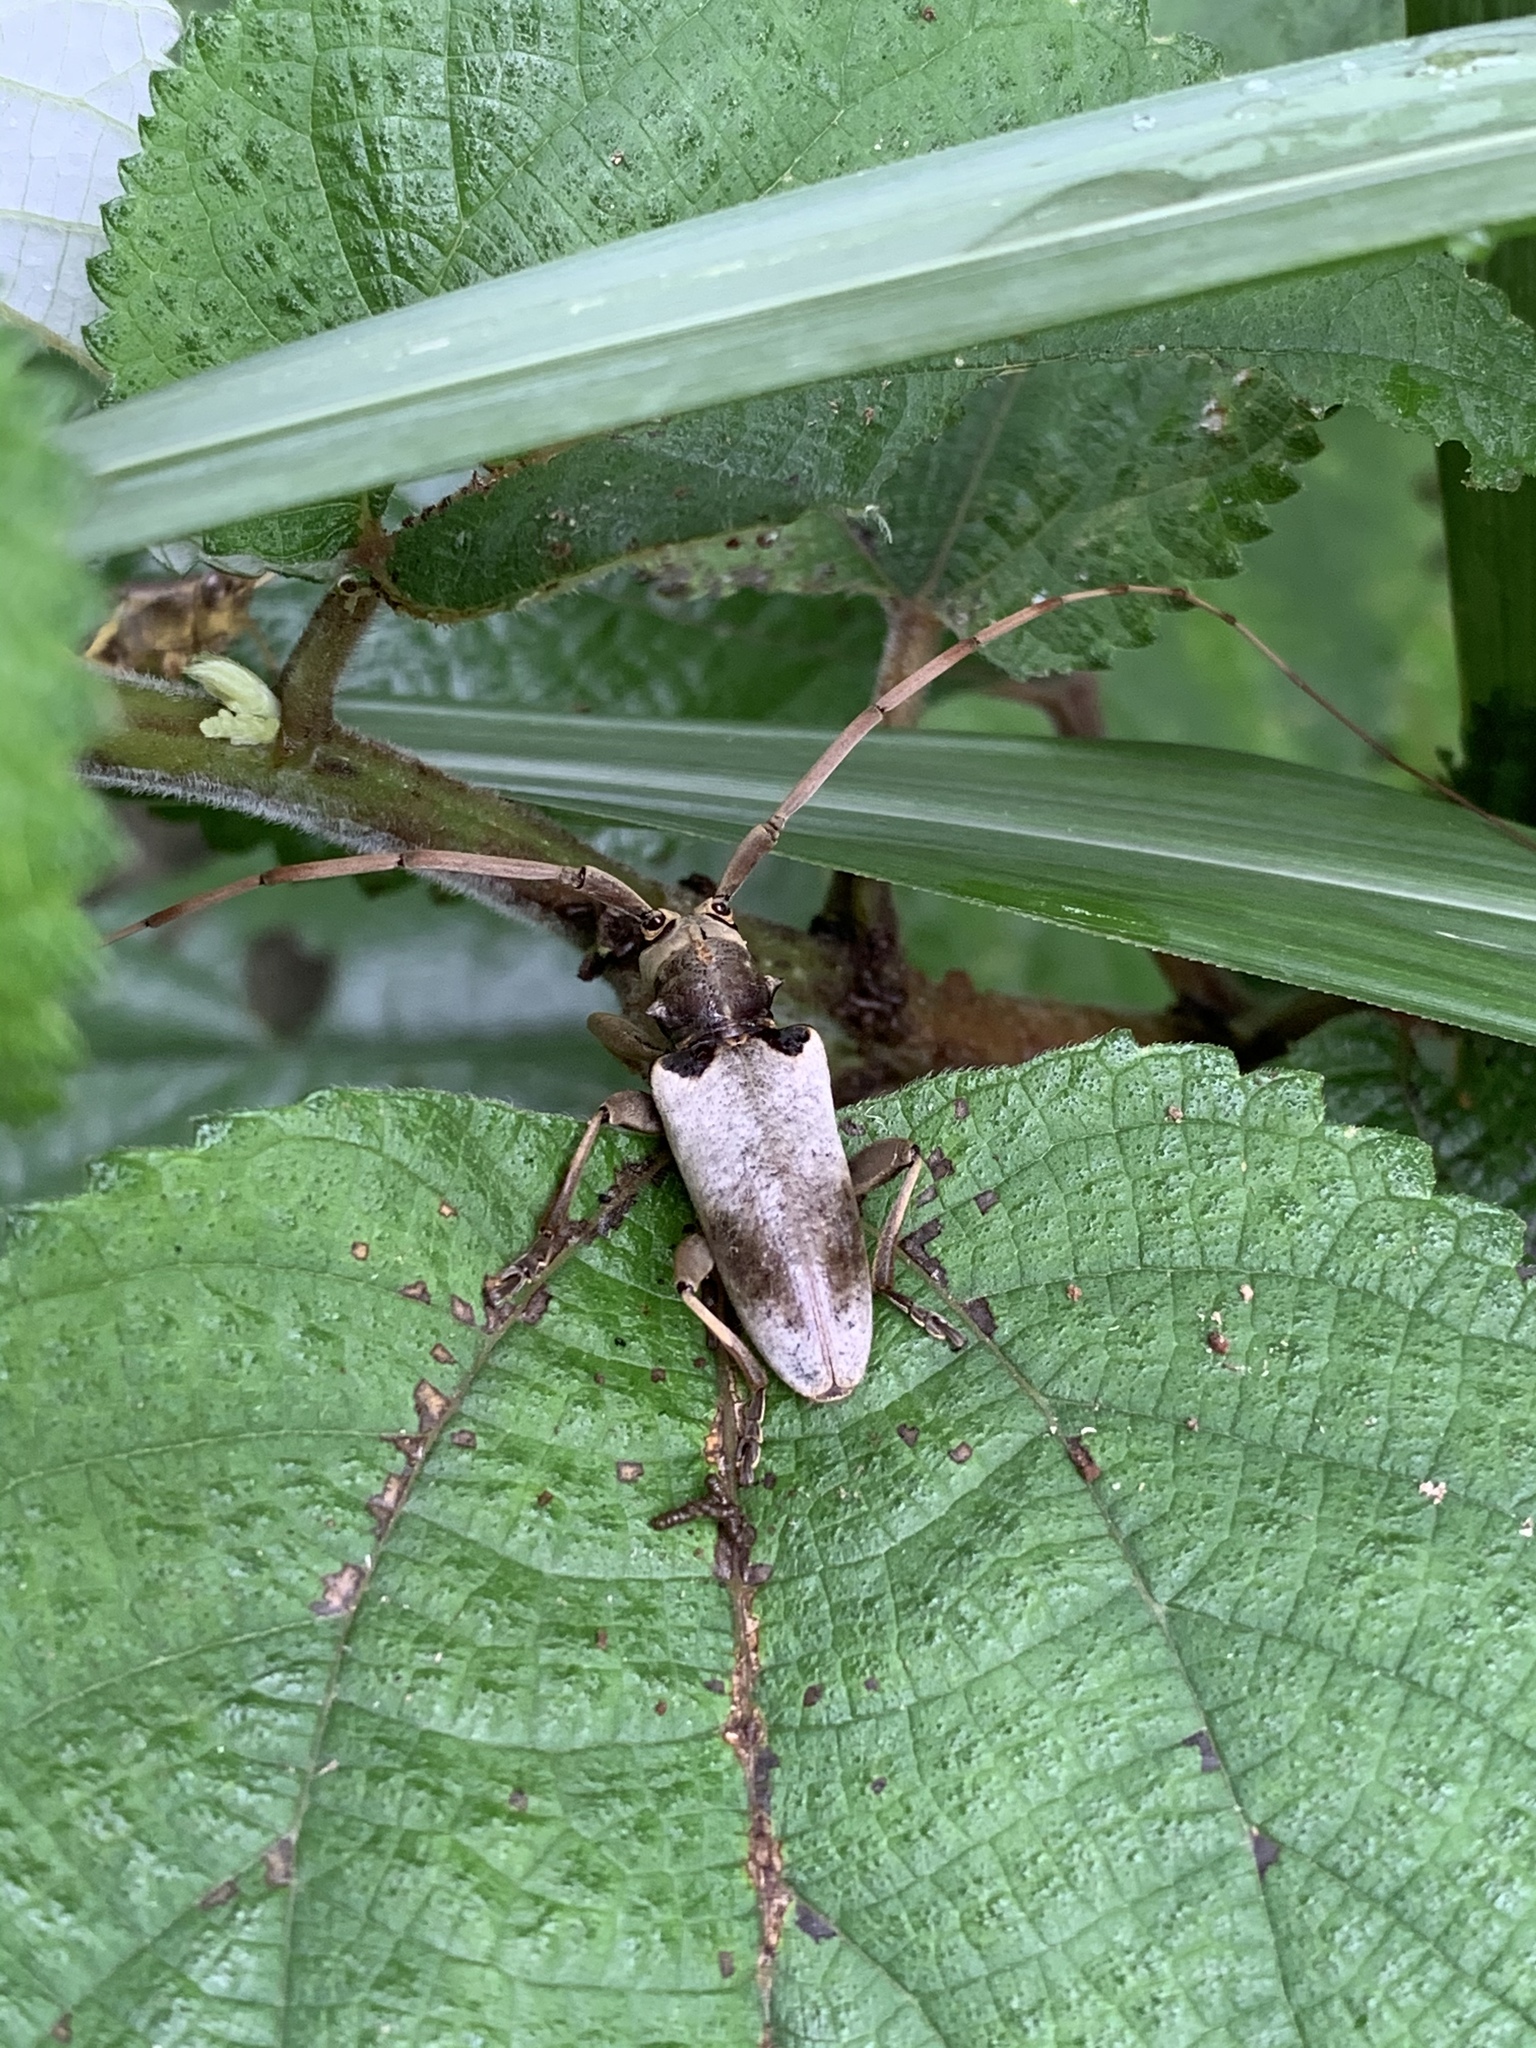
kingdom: Animalia
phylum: Arthropoda
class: Insecta
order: Coleoptera
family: Cerambycidae
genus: Acalolepta
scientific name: Acalolepta sublusca
